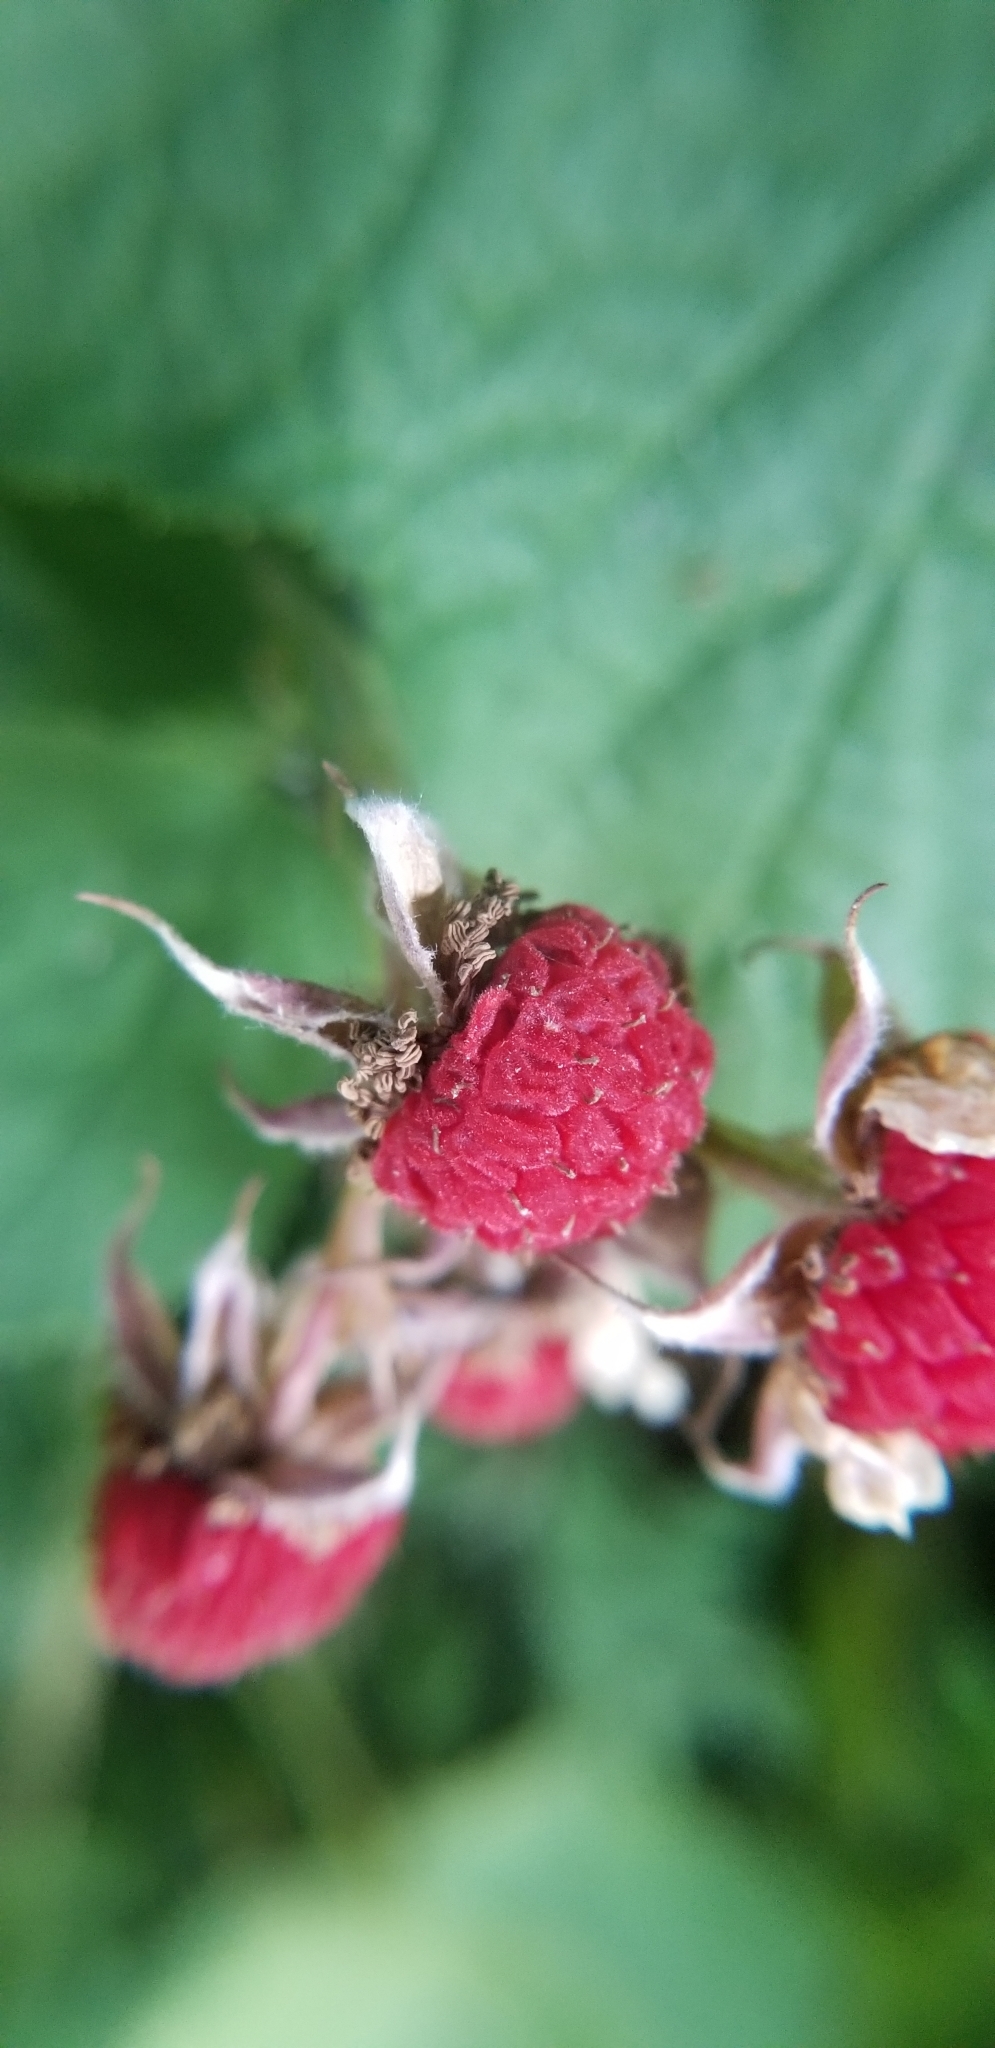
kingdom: Plantae
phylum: Tracheophyta
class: Magnoliopsida
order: Rosales
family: Rosaceae
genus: Rubus
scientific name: Rubus parviflorus
